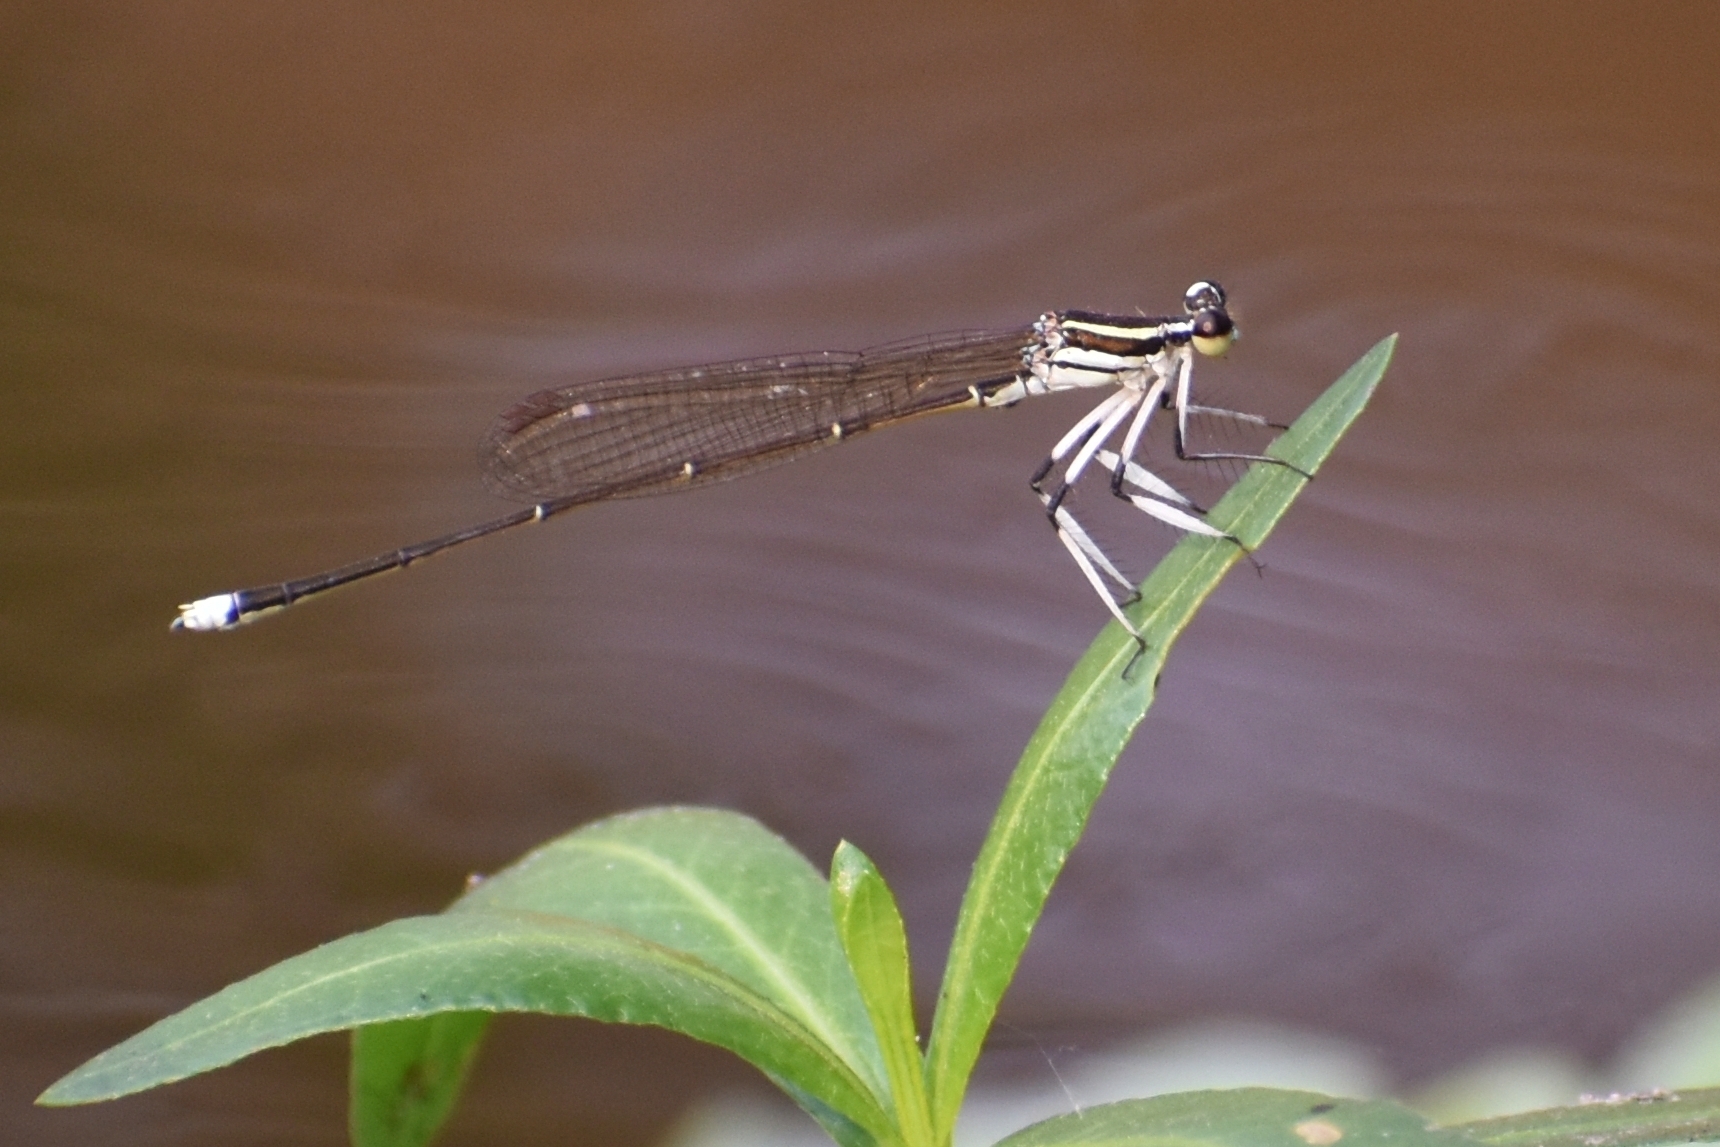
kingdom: Animalia
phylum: Arthropoda
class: Insecta
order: Odonata
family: Platycnemididae
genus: Pseudocopera
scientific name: Pseudocopera ciliata
